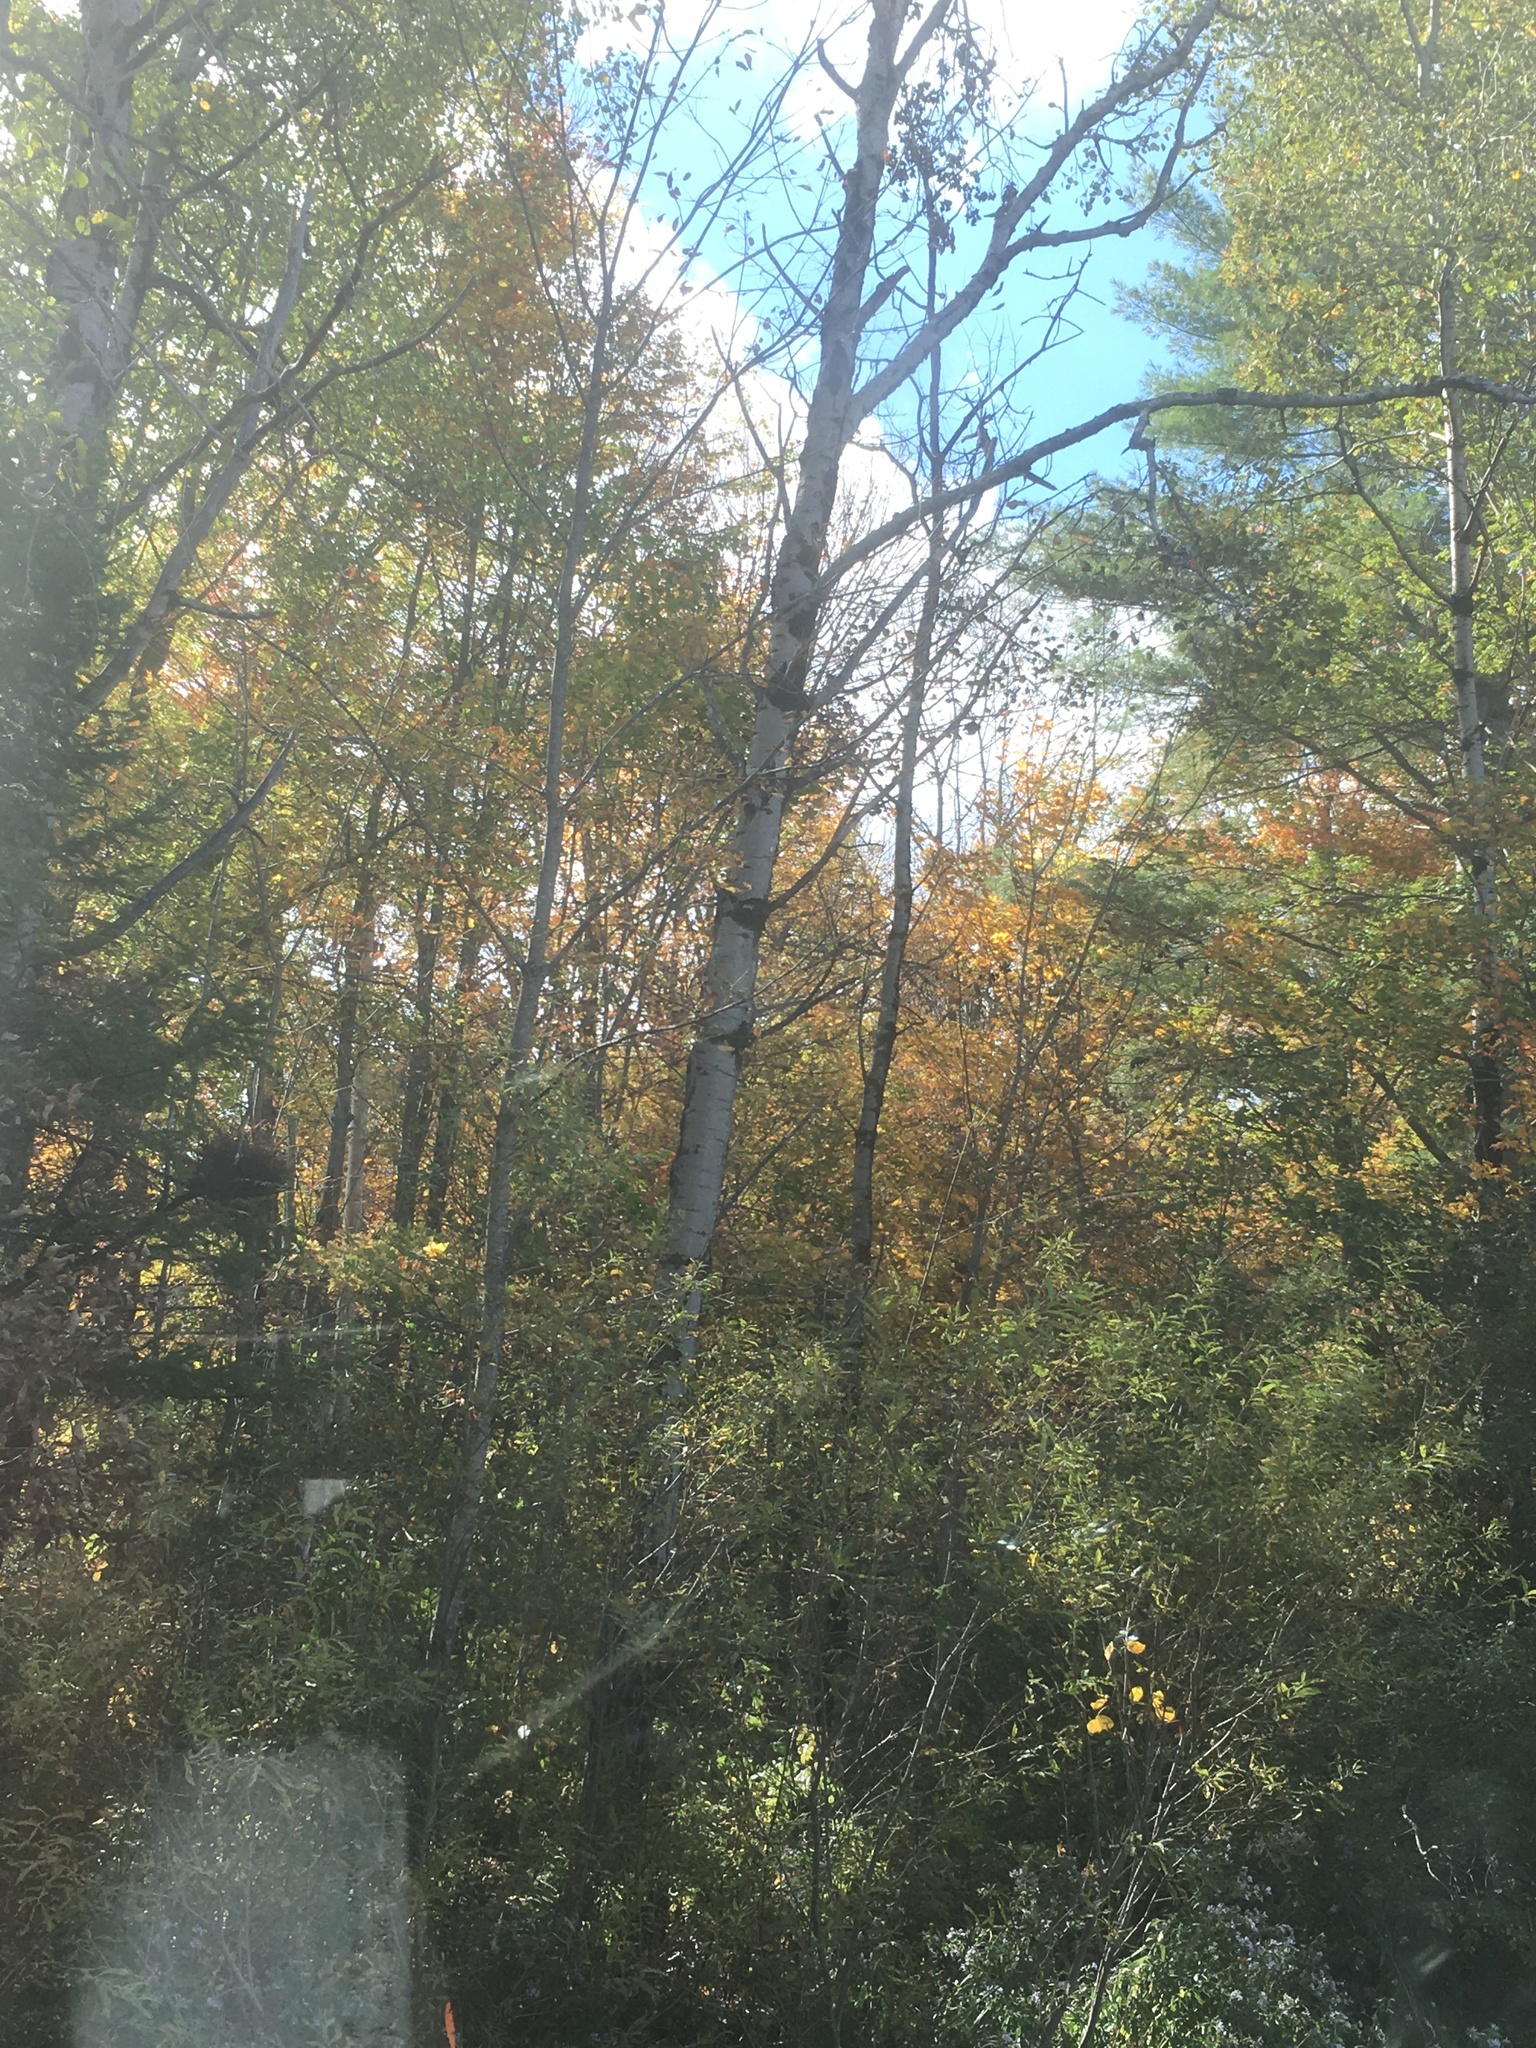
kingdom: Plantae
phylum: Tracheophyta
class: Magnoliopsida
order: Malpighiales
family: Salicaceae
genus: Populus
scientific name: Populus tremuloides
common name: Quaking aspen
